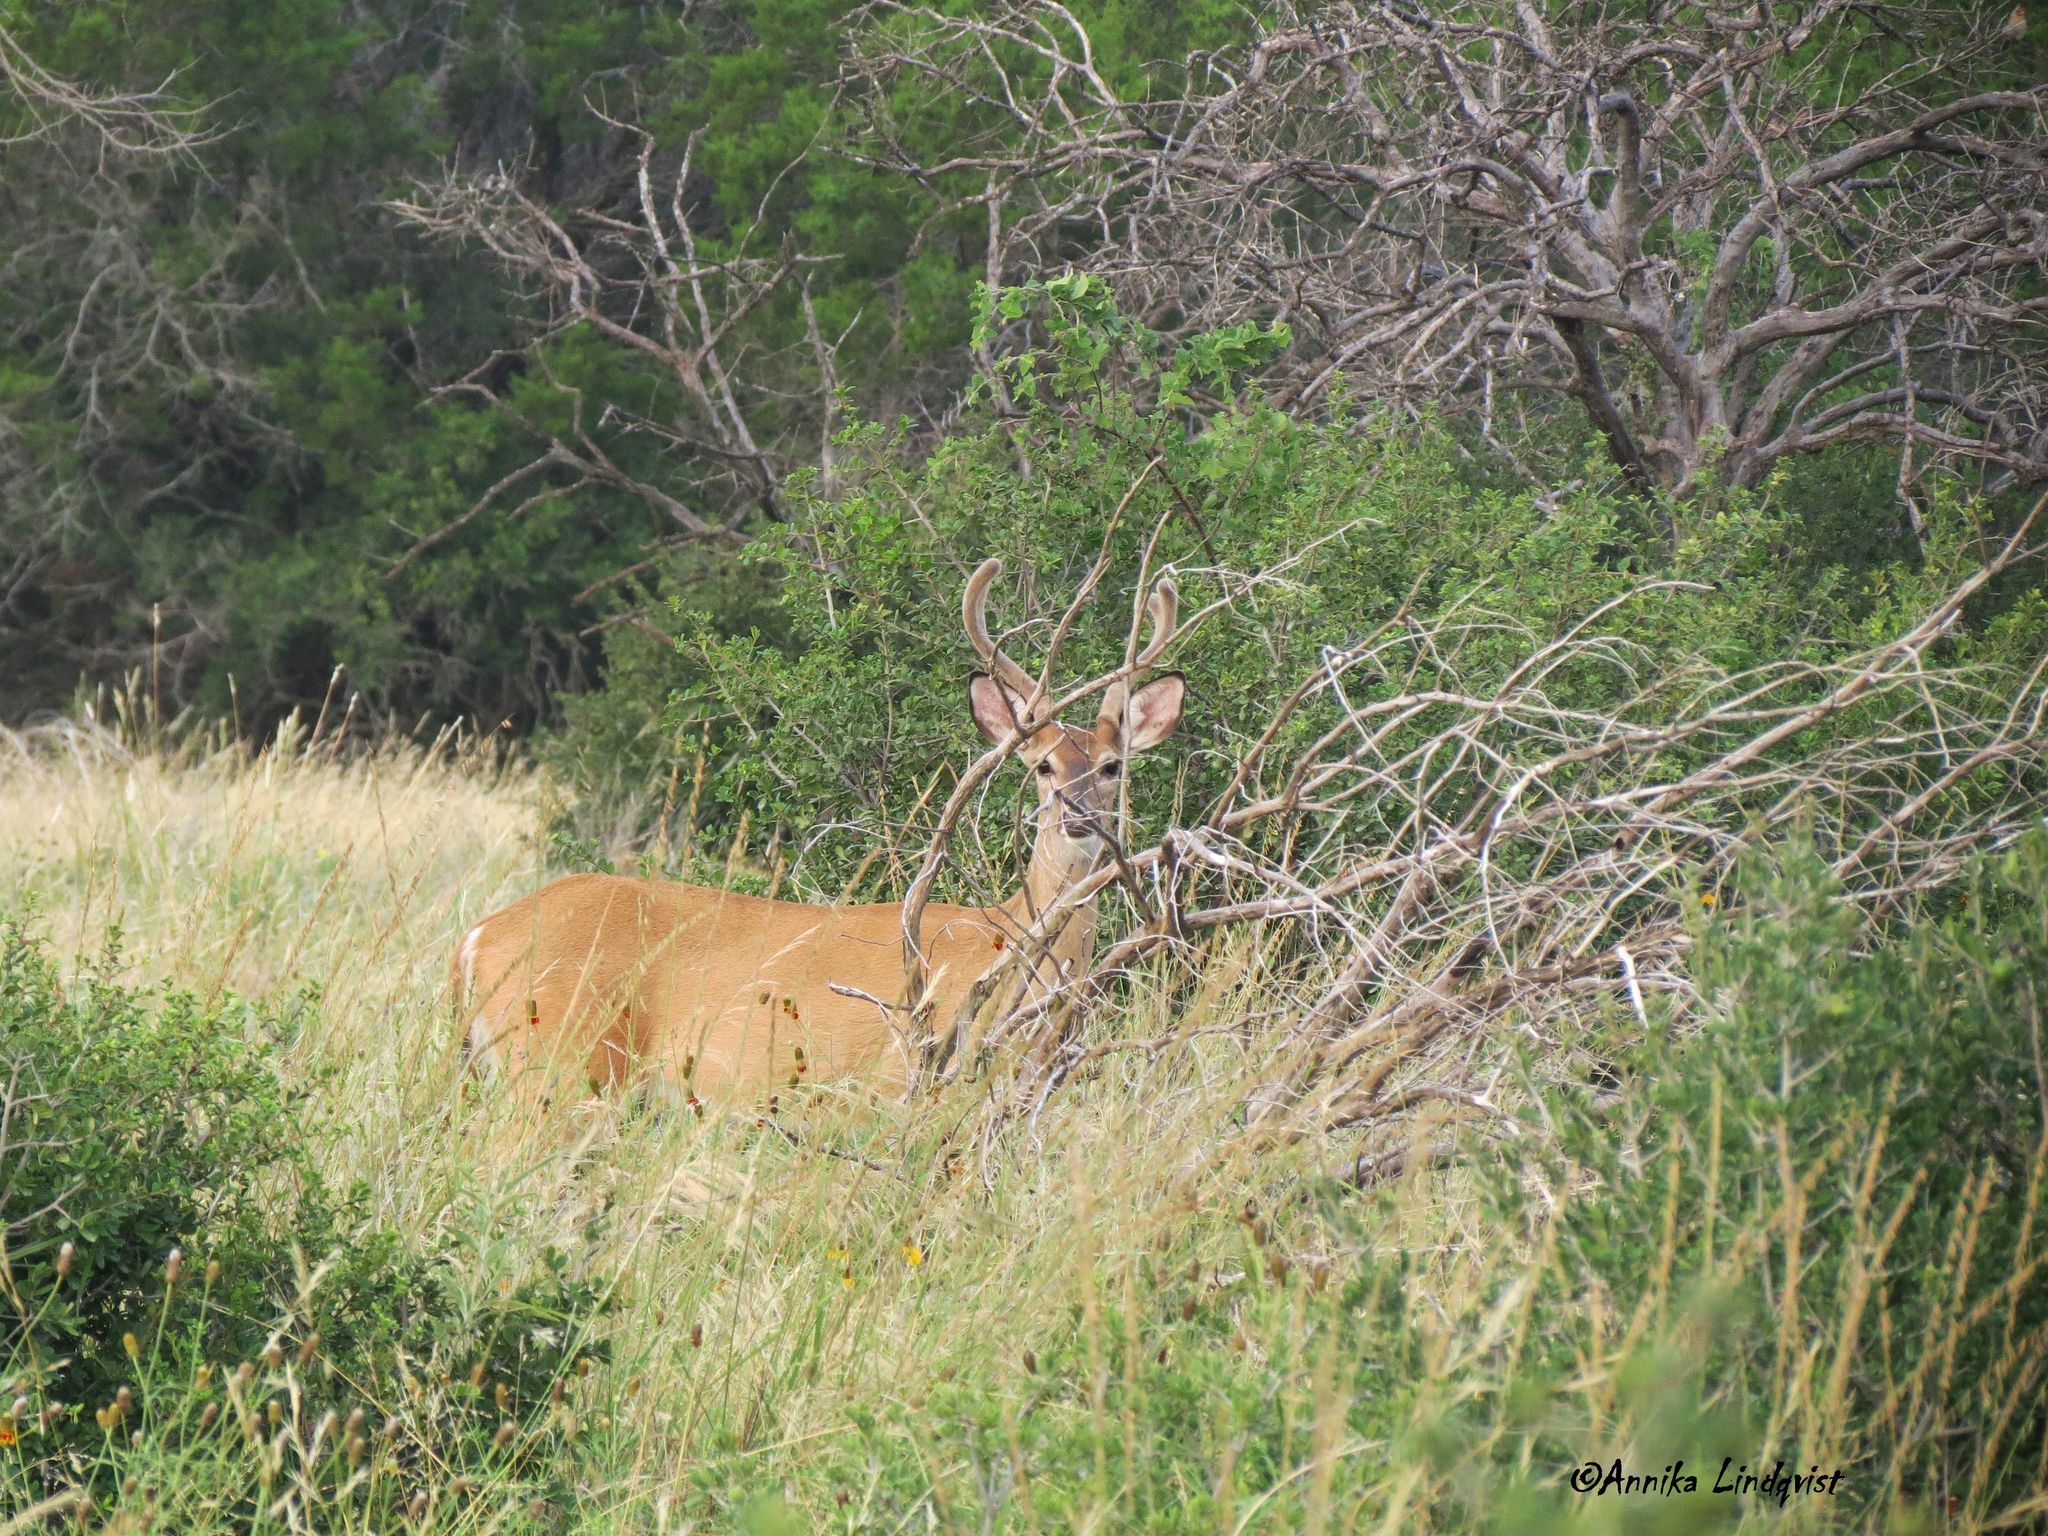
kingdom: Animalia
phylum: Chordata
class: Mammalia
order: Artiodactyla
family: Cervidae
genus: Odocoileus
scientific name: Odocoileus virginianus
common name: White-tailed deer
